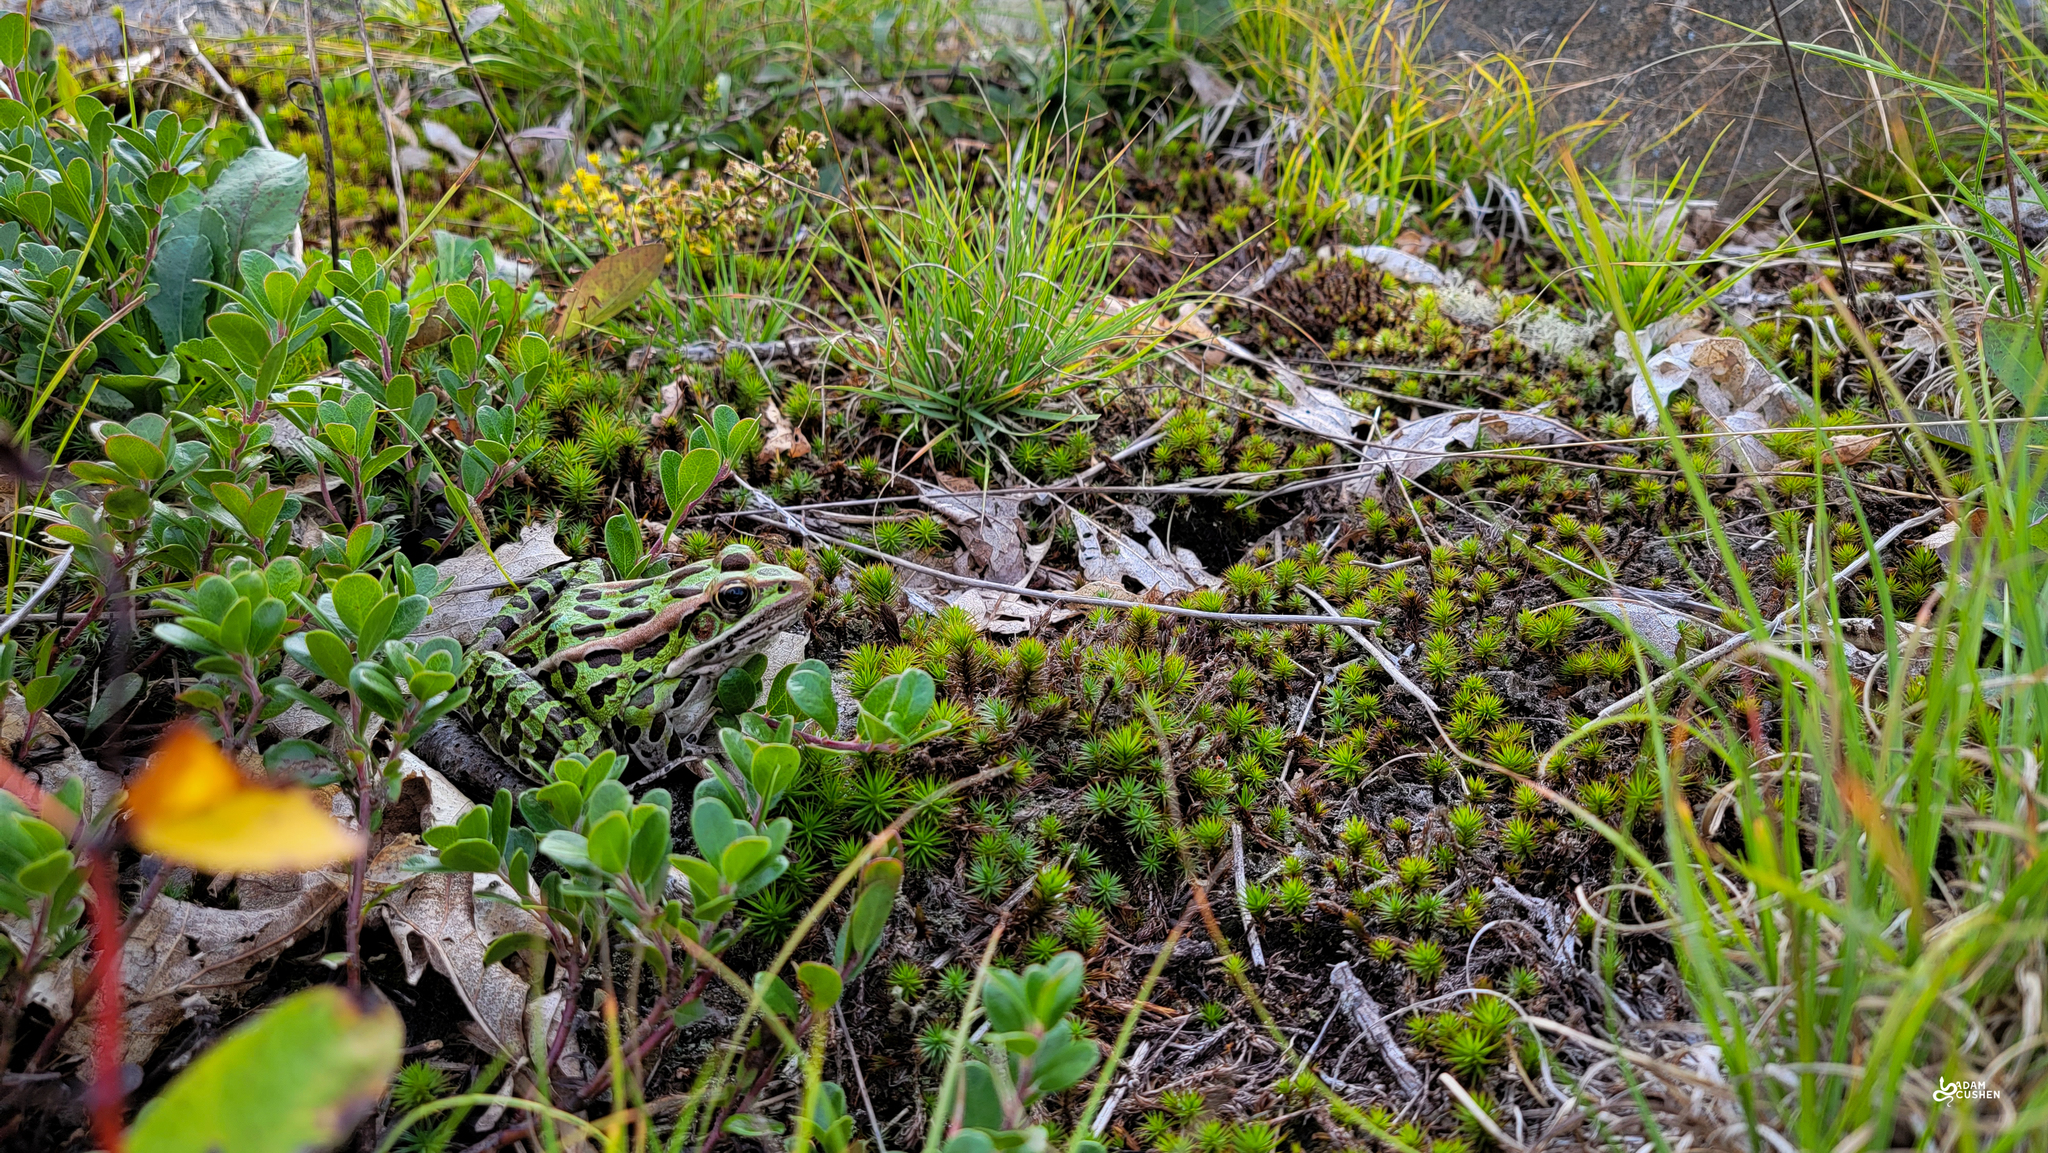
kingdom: Animalia
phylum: Chordata
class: Amphibia
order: Anura
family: Ranidae
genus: Lithobates
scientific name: Lithobates pipiens
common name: Northern leopard frog
